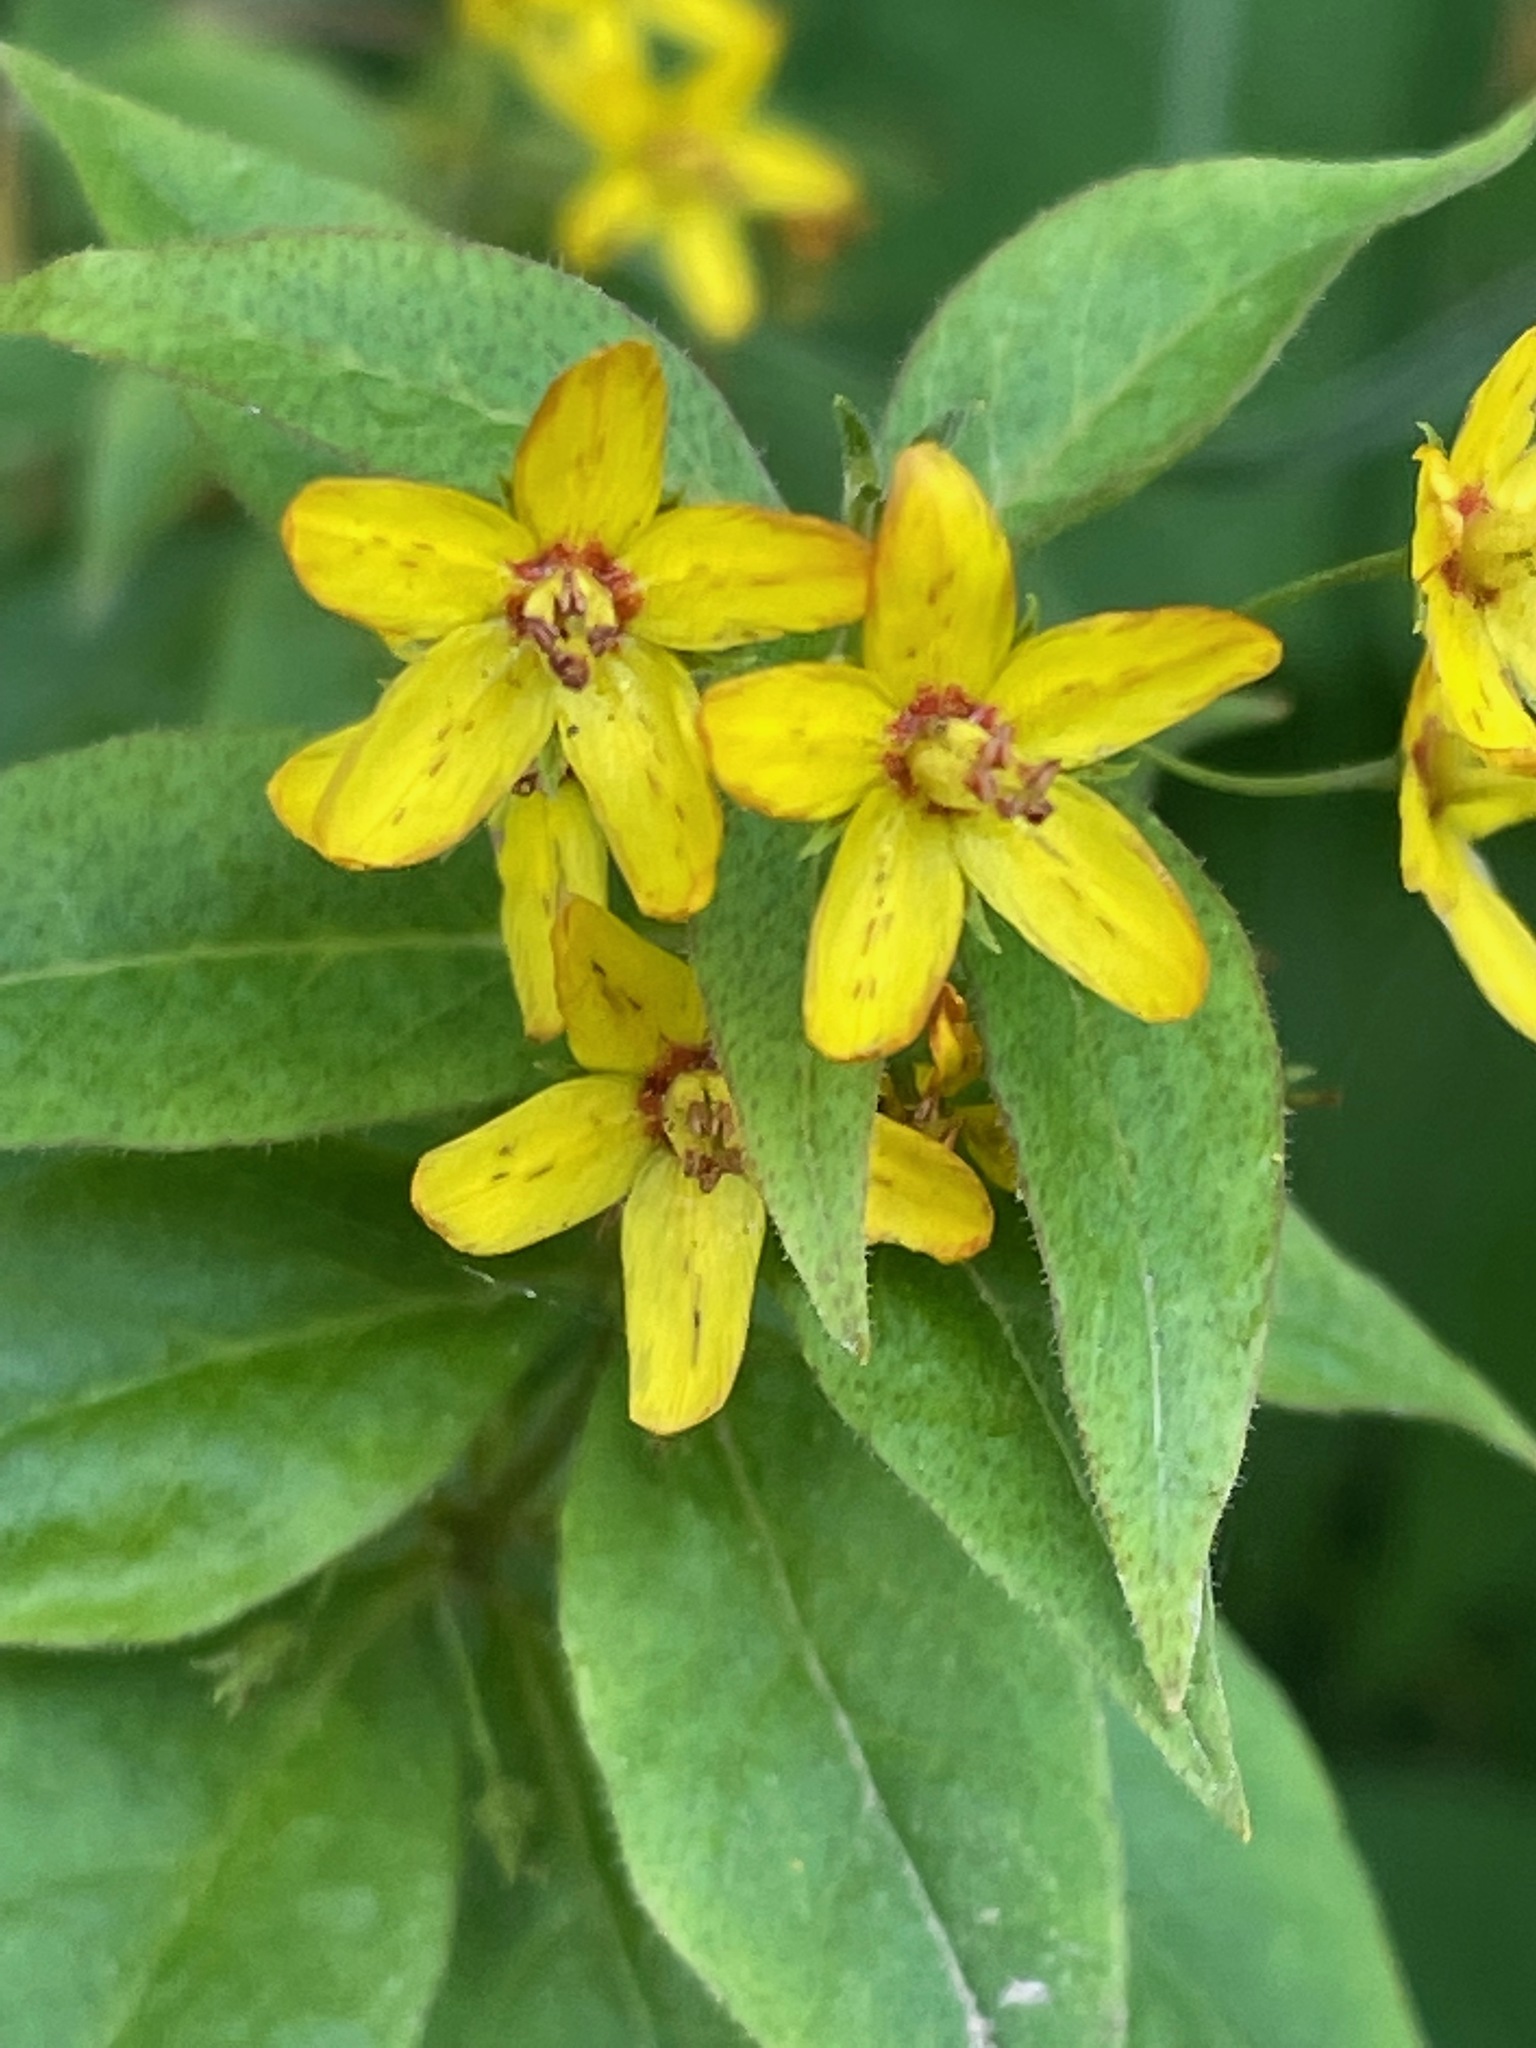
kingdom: Plantae
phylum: Tracheophyta
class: Magnoliopsida
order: Ericales
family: Primulaceae
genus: Lysimachia
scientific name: Lysimachia quadrifolia
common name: Whorled loosestrife
